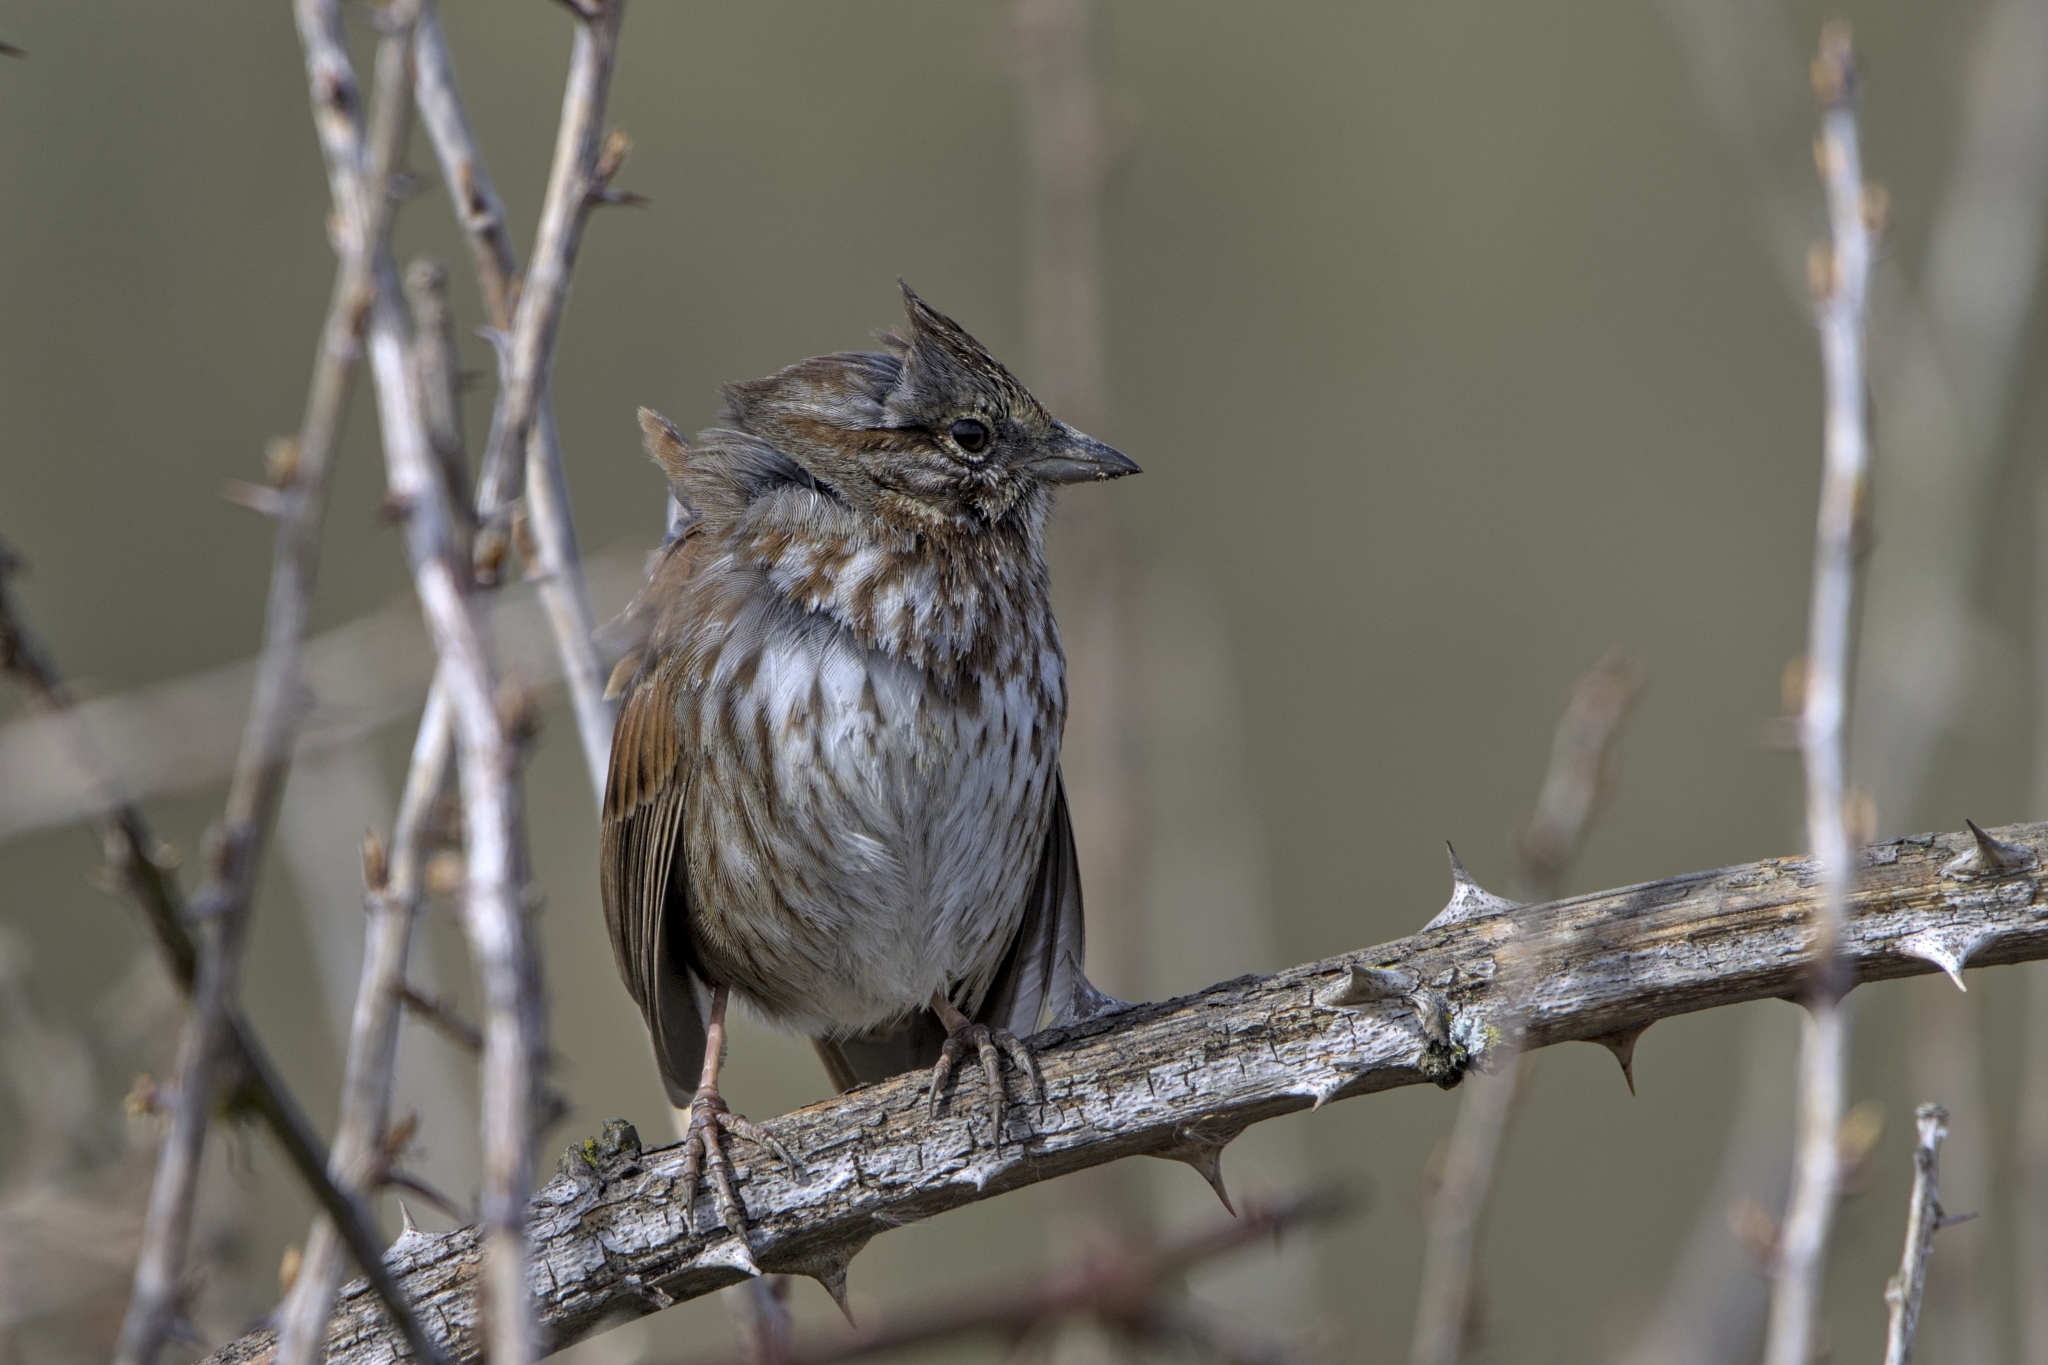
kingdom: Animalia
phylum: Chordata
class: Aves
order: Passeriformes
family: Passerellidae
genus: Melospiza
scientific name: Melospiza melodia
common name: Song sparrow
